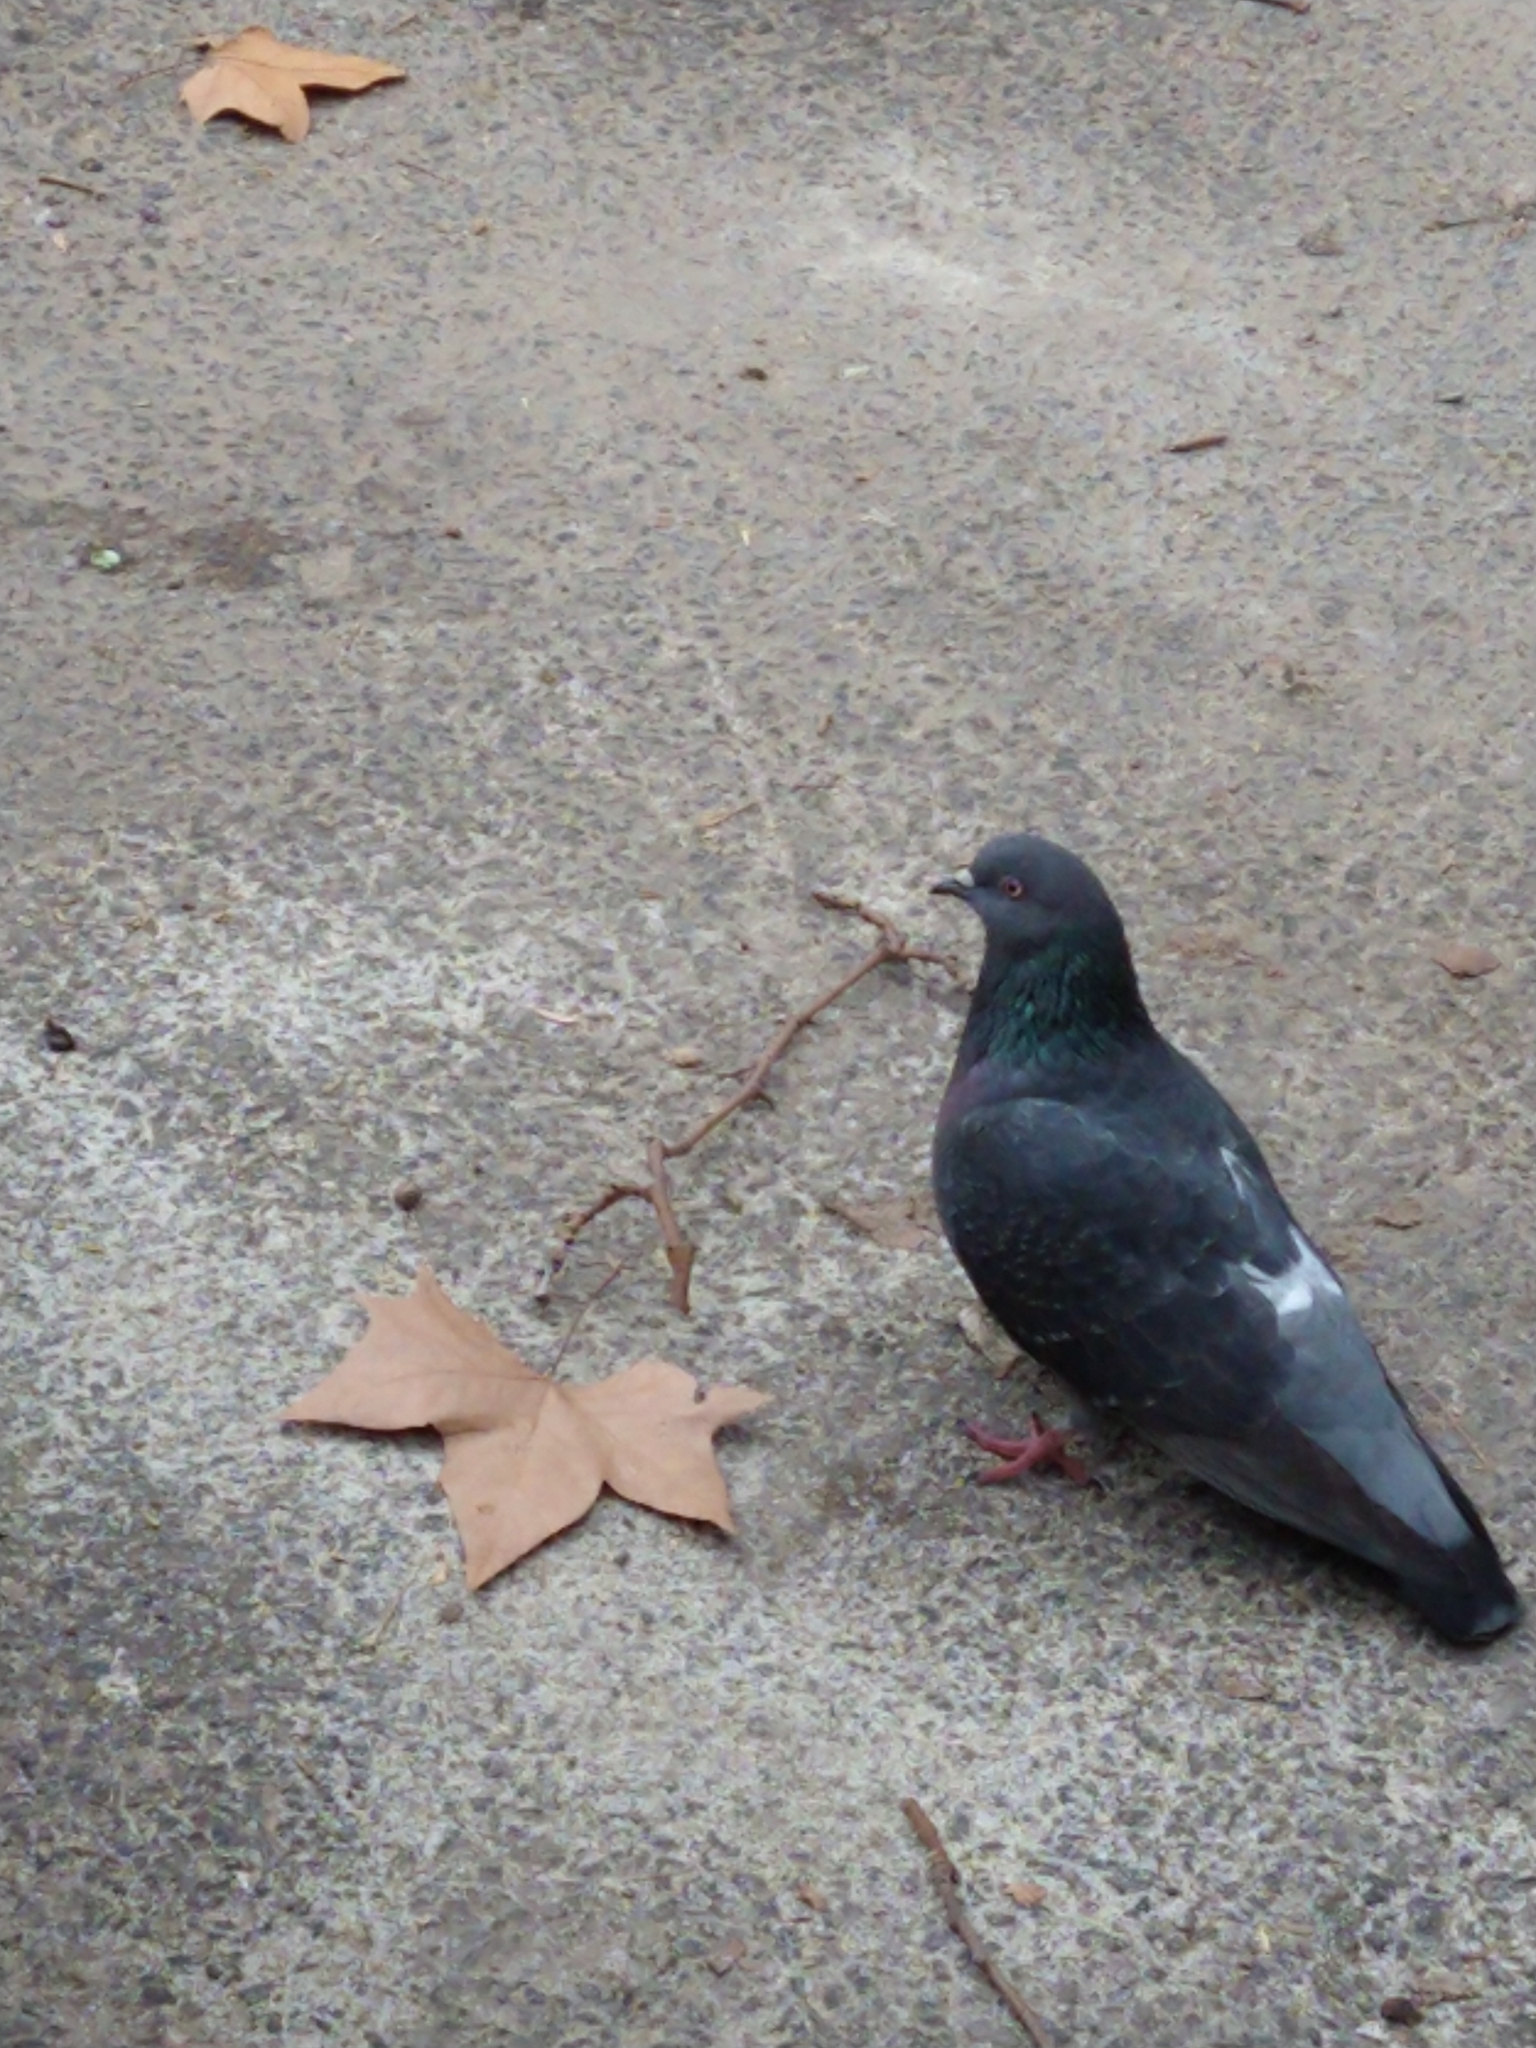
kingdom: Animalia
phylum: Chordata
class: Aves
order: Columbiformes
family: Columbidae
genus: Columba
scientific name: Columba livia
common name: Rock pigeon
